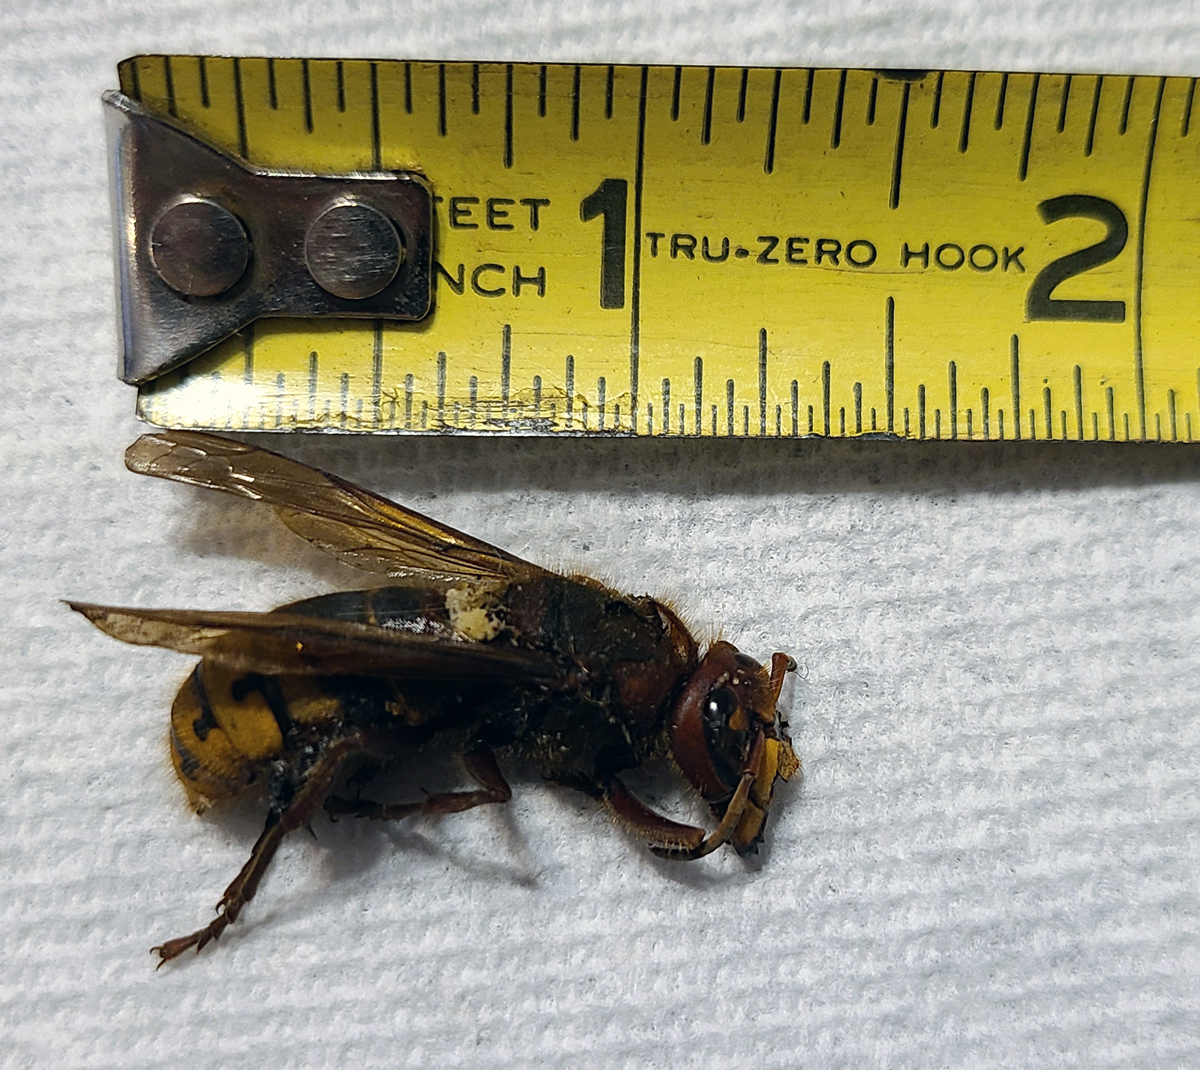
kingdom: Animalia
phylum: Arthropoda
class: Insecta
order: Hymenoptera
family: Vespidae
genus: Vespa
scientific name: Vespa crabro
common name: Hornet
